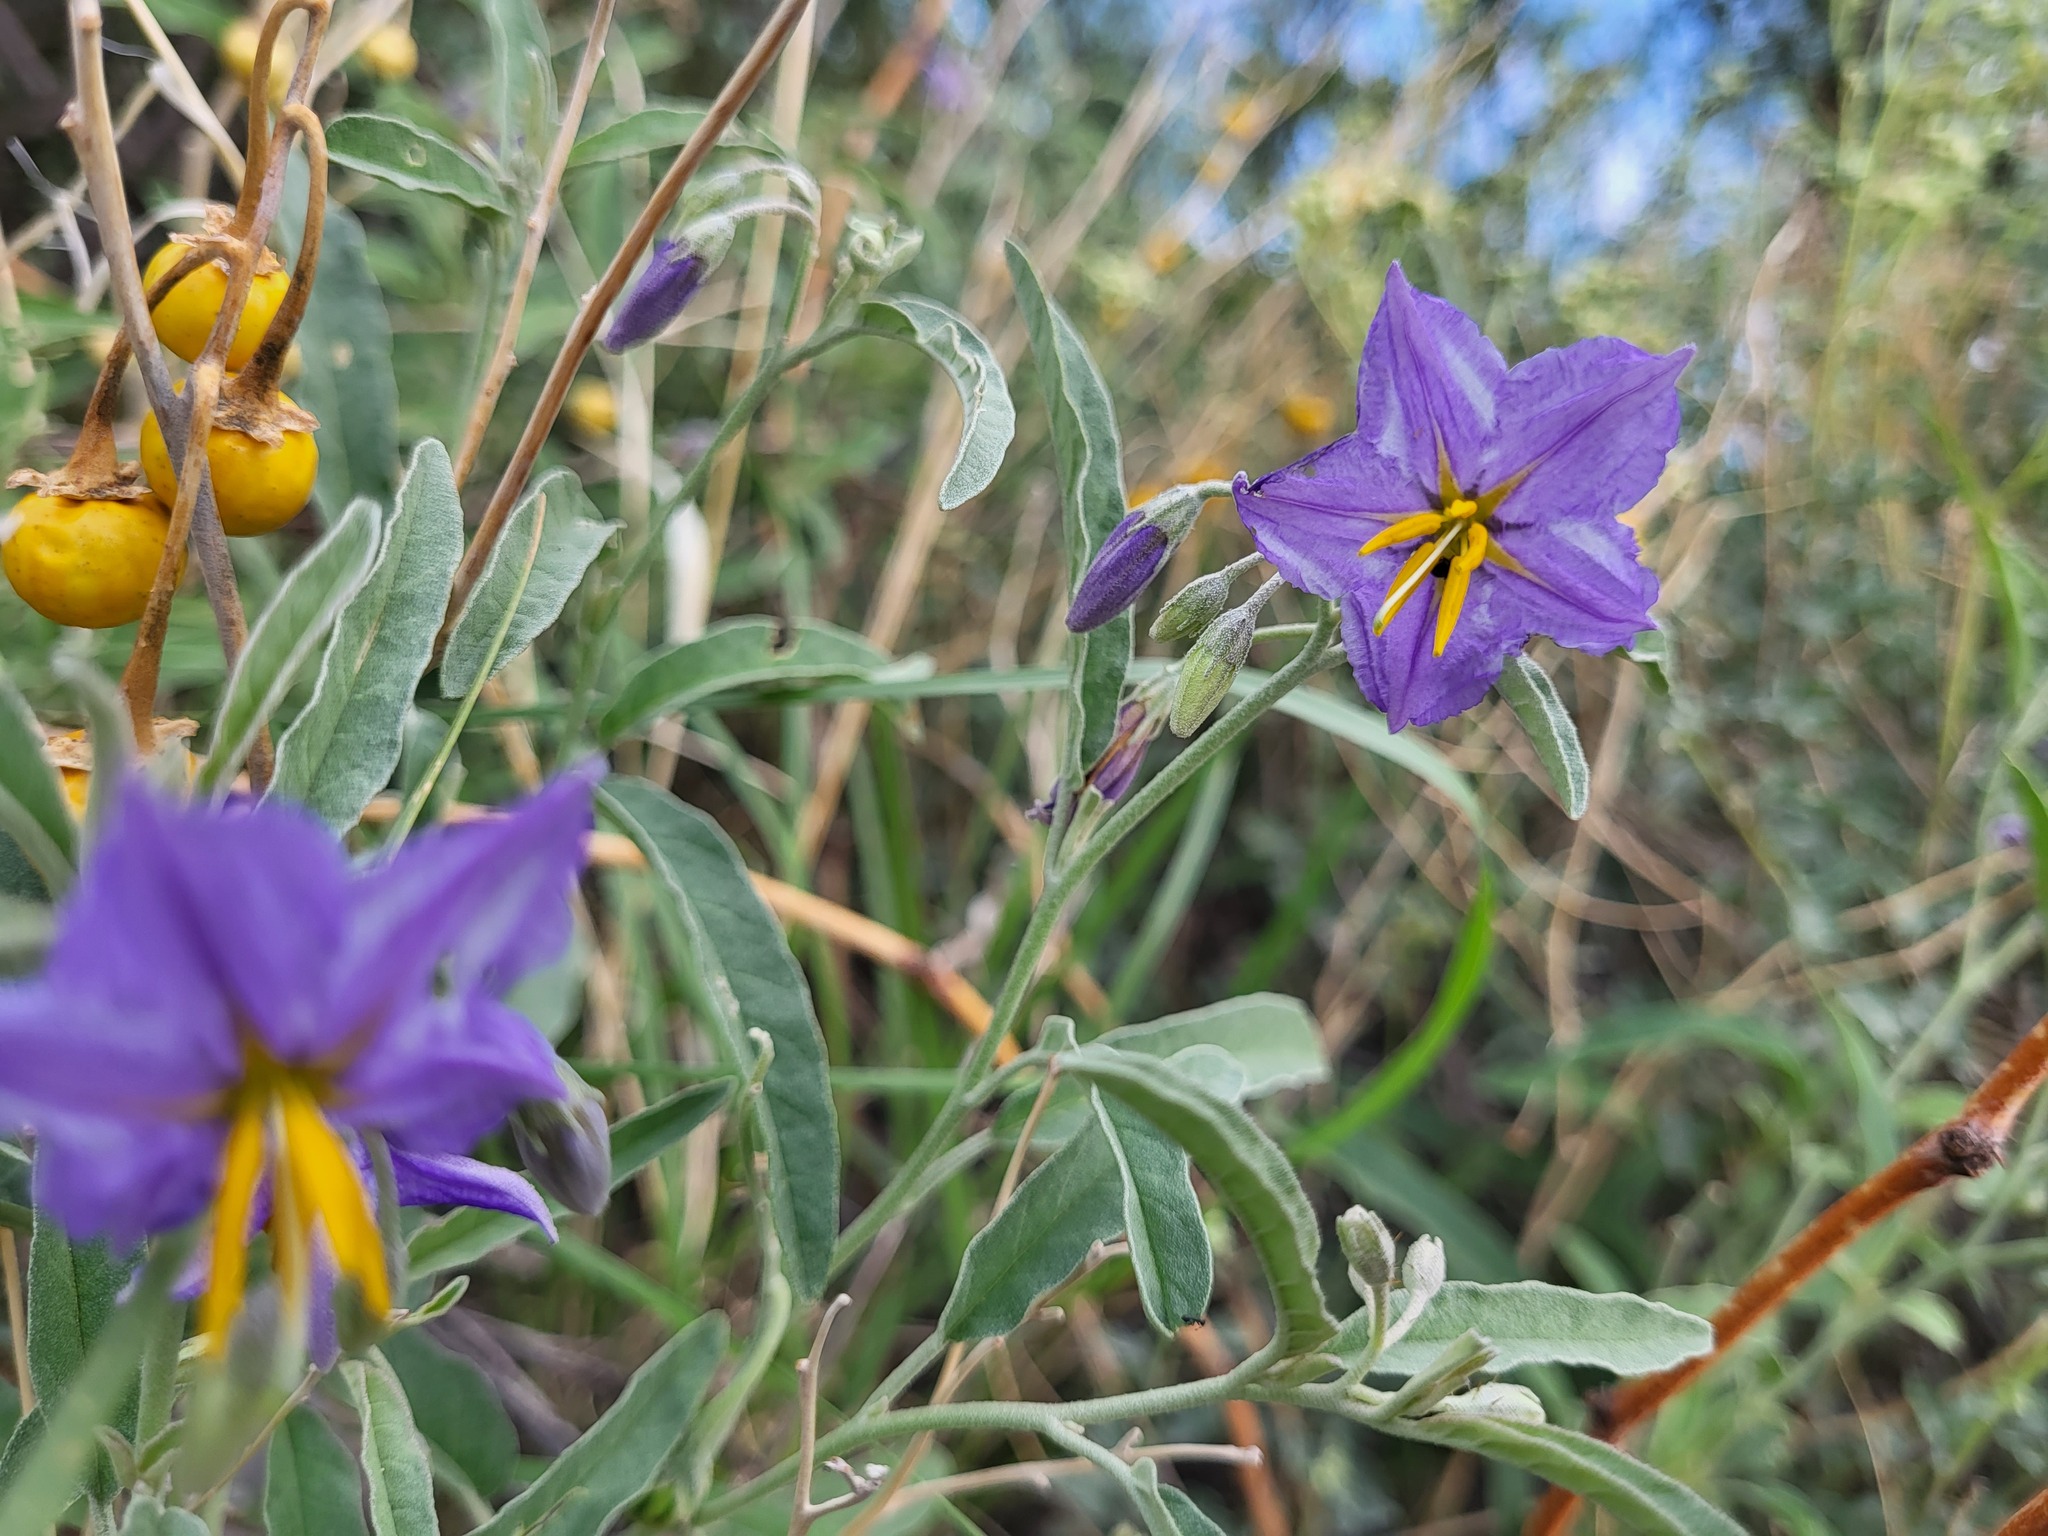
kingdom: Plantae
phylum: Tracheophyta
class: Magnoliopsida
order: Solanales
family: Solanaceae
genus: Solanum
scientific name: Solanum elaeagnifolium
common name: Silverleaf nightshade
